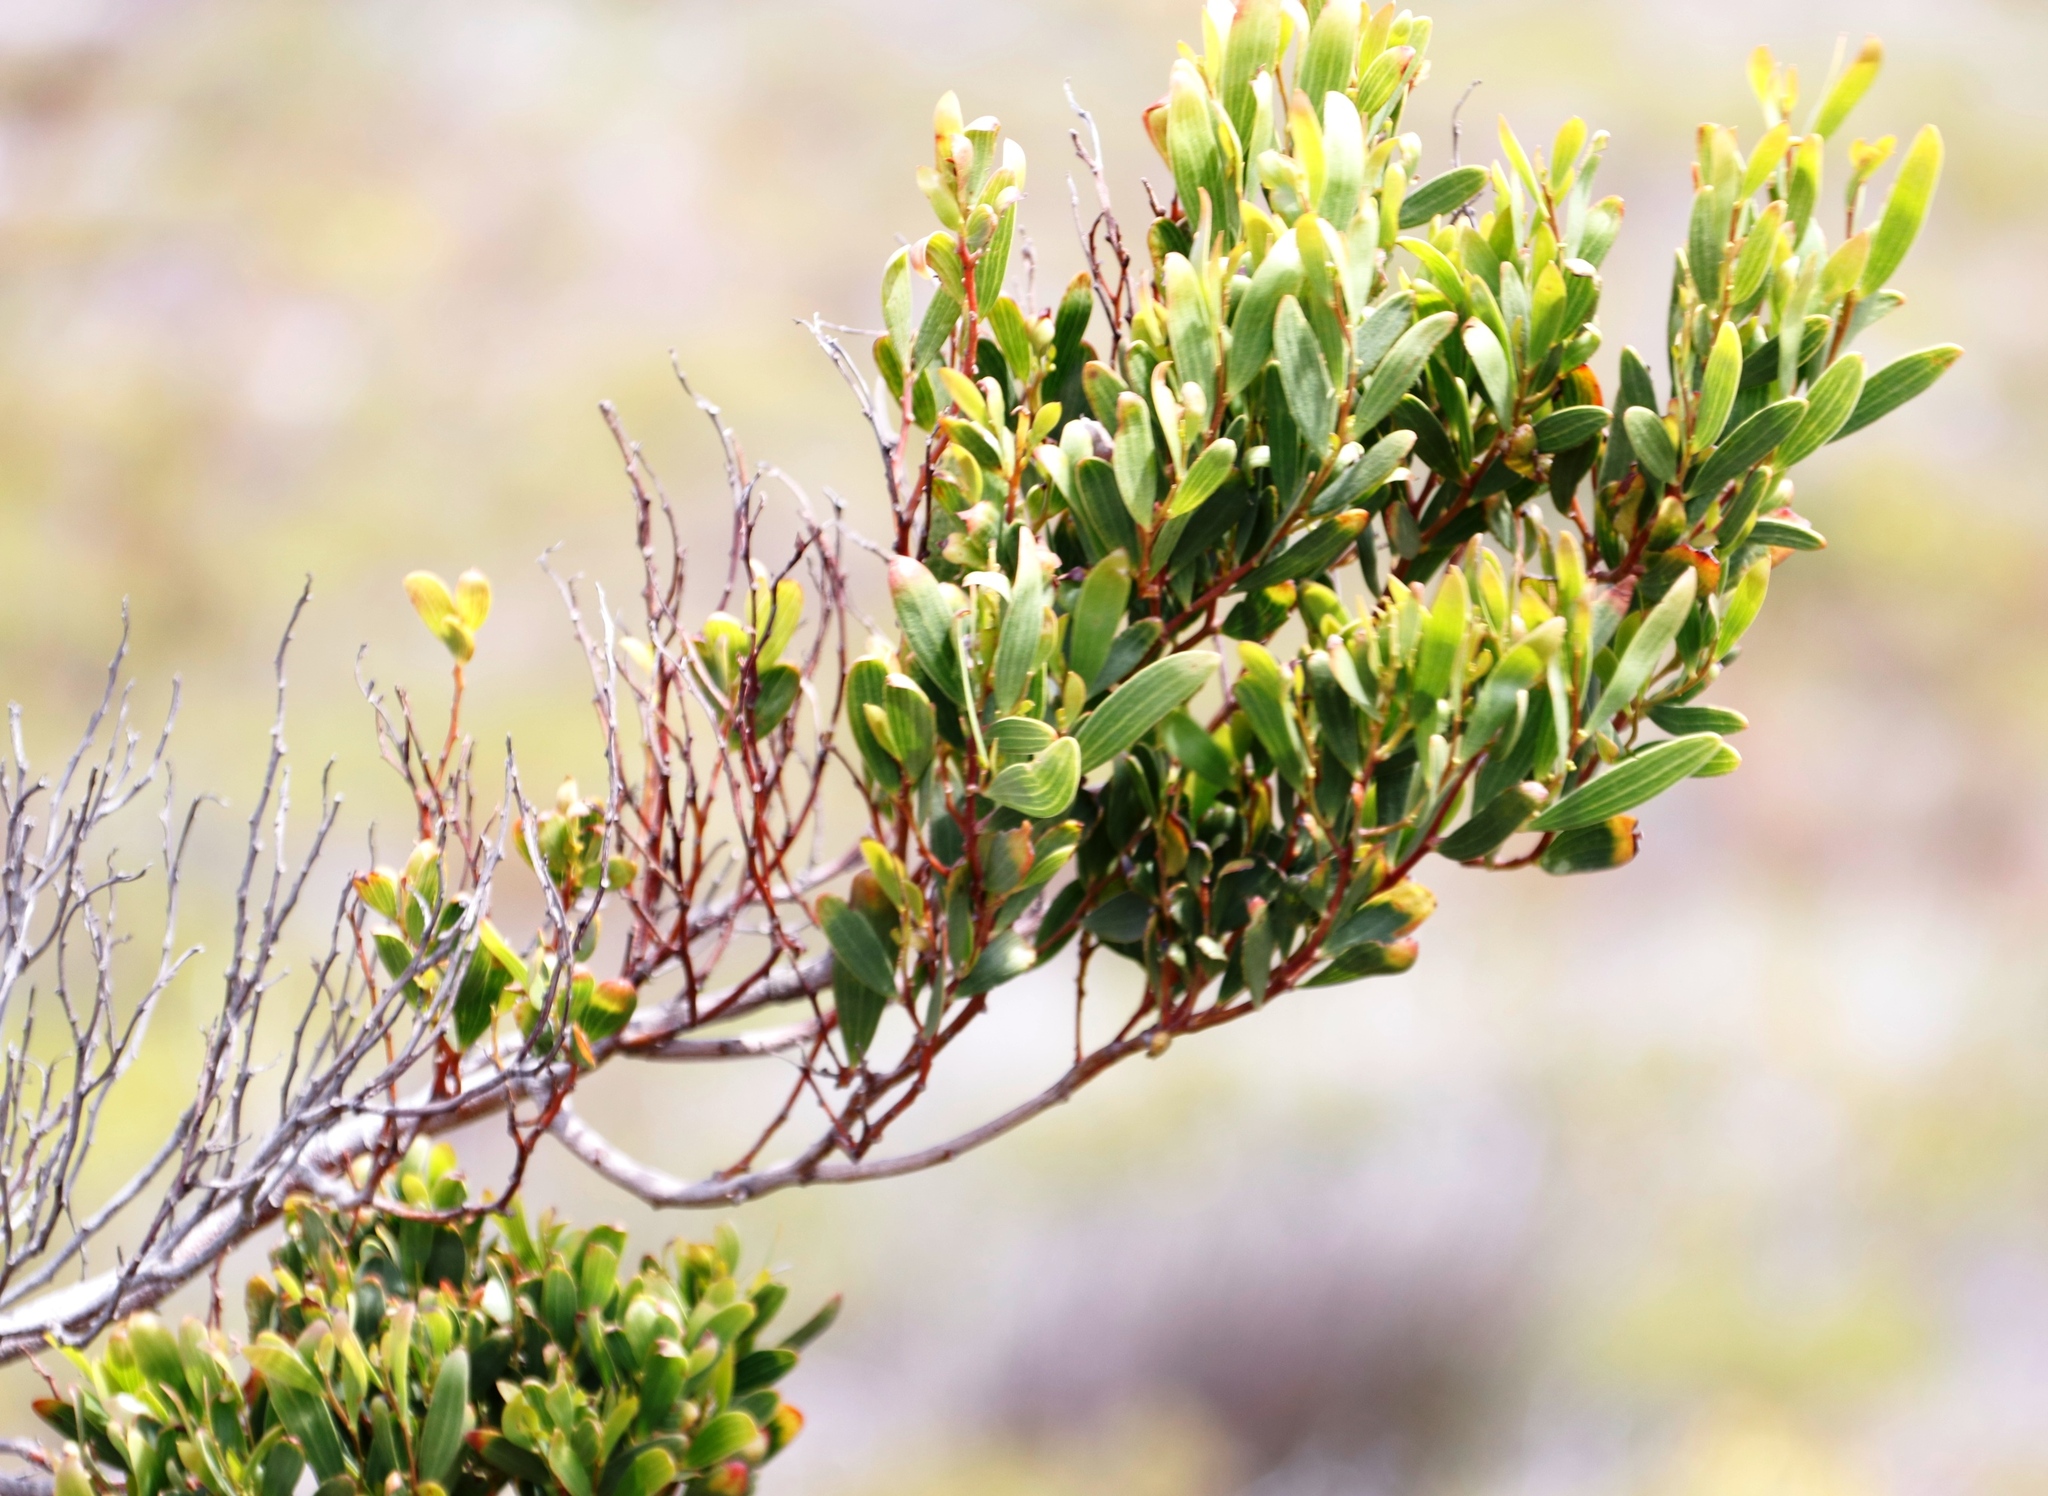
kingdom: Plantae
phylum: Tracheophyta
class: Magnoliopsida
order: Fabales
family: Fabaceae
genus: Acacia
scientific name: Acacia cyclops
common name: Coastal wattle
